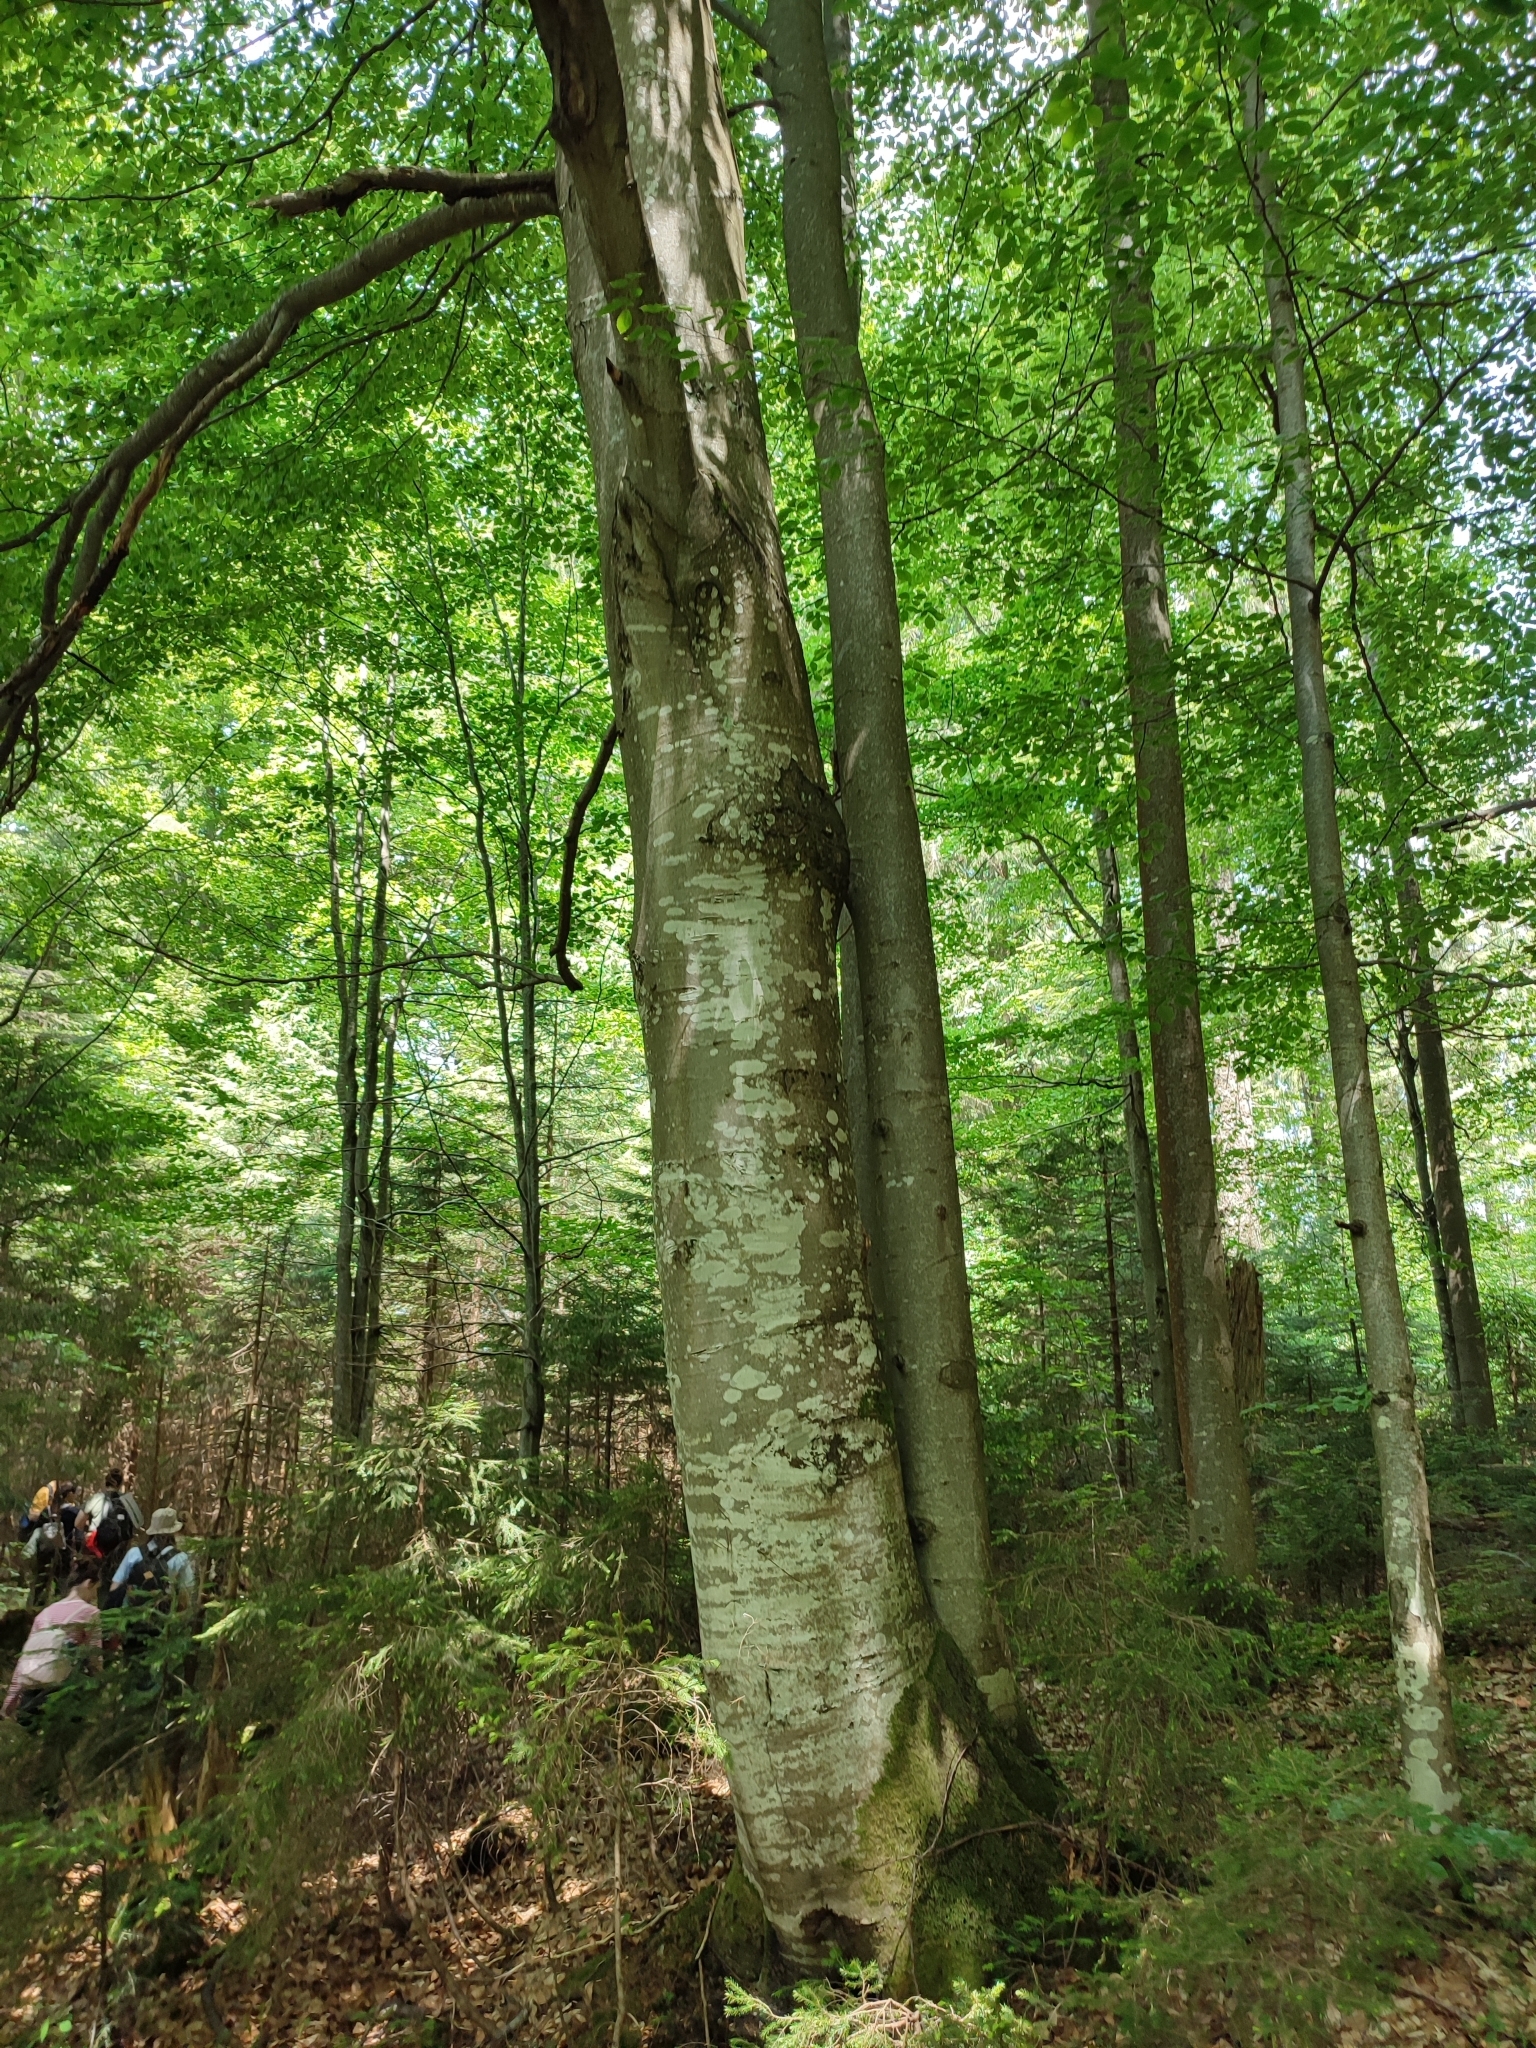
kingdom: Plantae
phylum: Tracheophyta
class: Magnoliopsida
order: Fagales
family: Fagaceae
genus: Fagus
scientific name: Fagus sylvatica
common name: Beech
